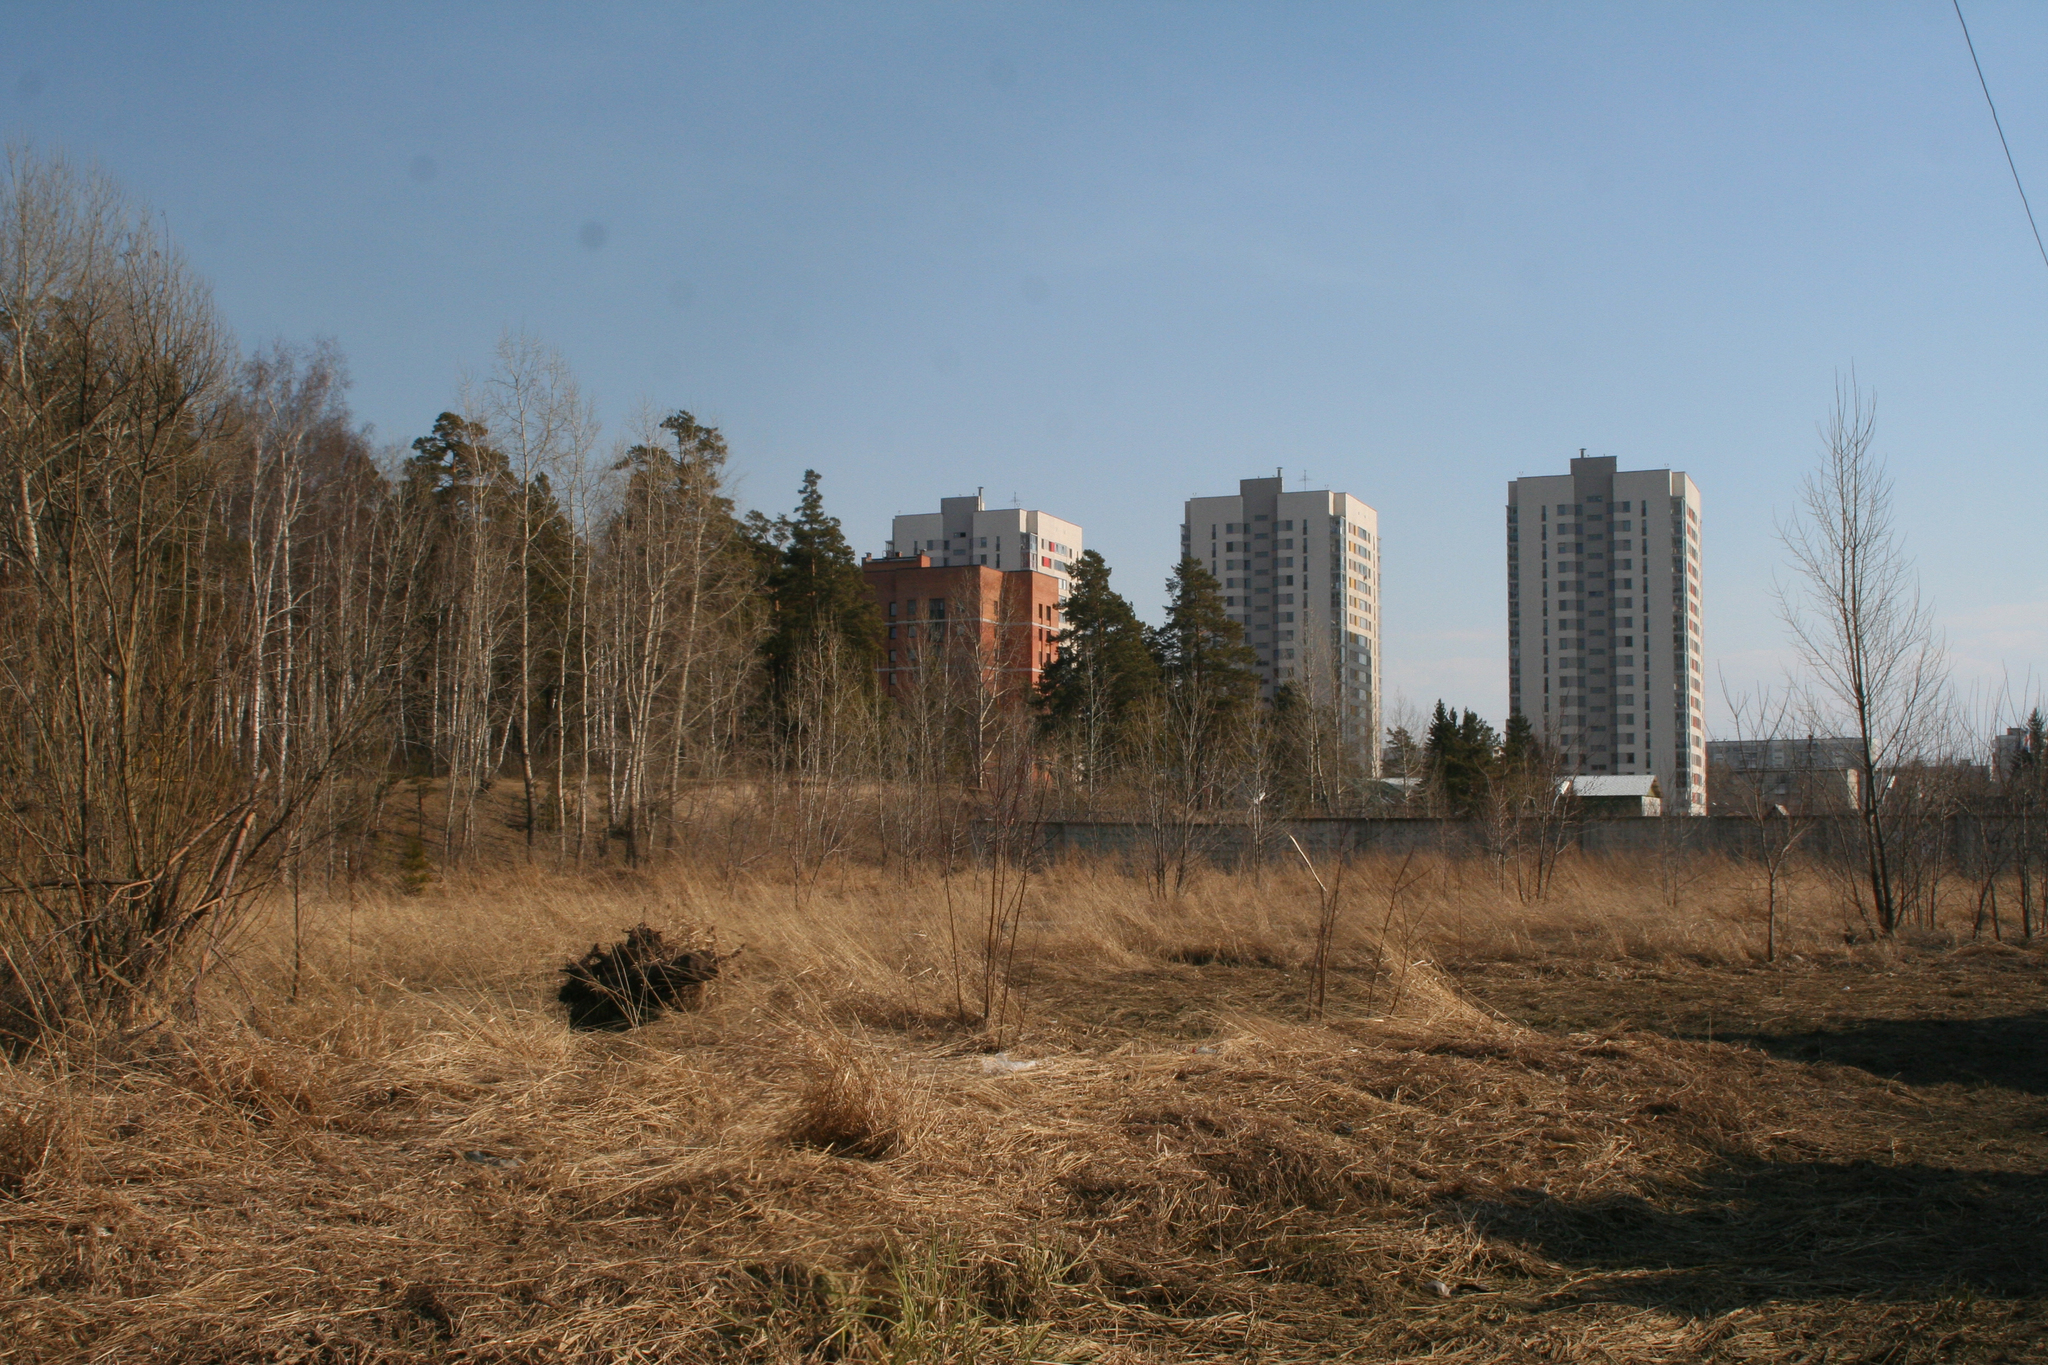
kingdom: Plantae
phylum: Tracheophyta
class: Pinopsida
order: Pinales
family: Pinaceae
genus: Pinus
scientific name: Pinus sylvestris
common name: Scots pine
